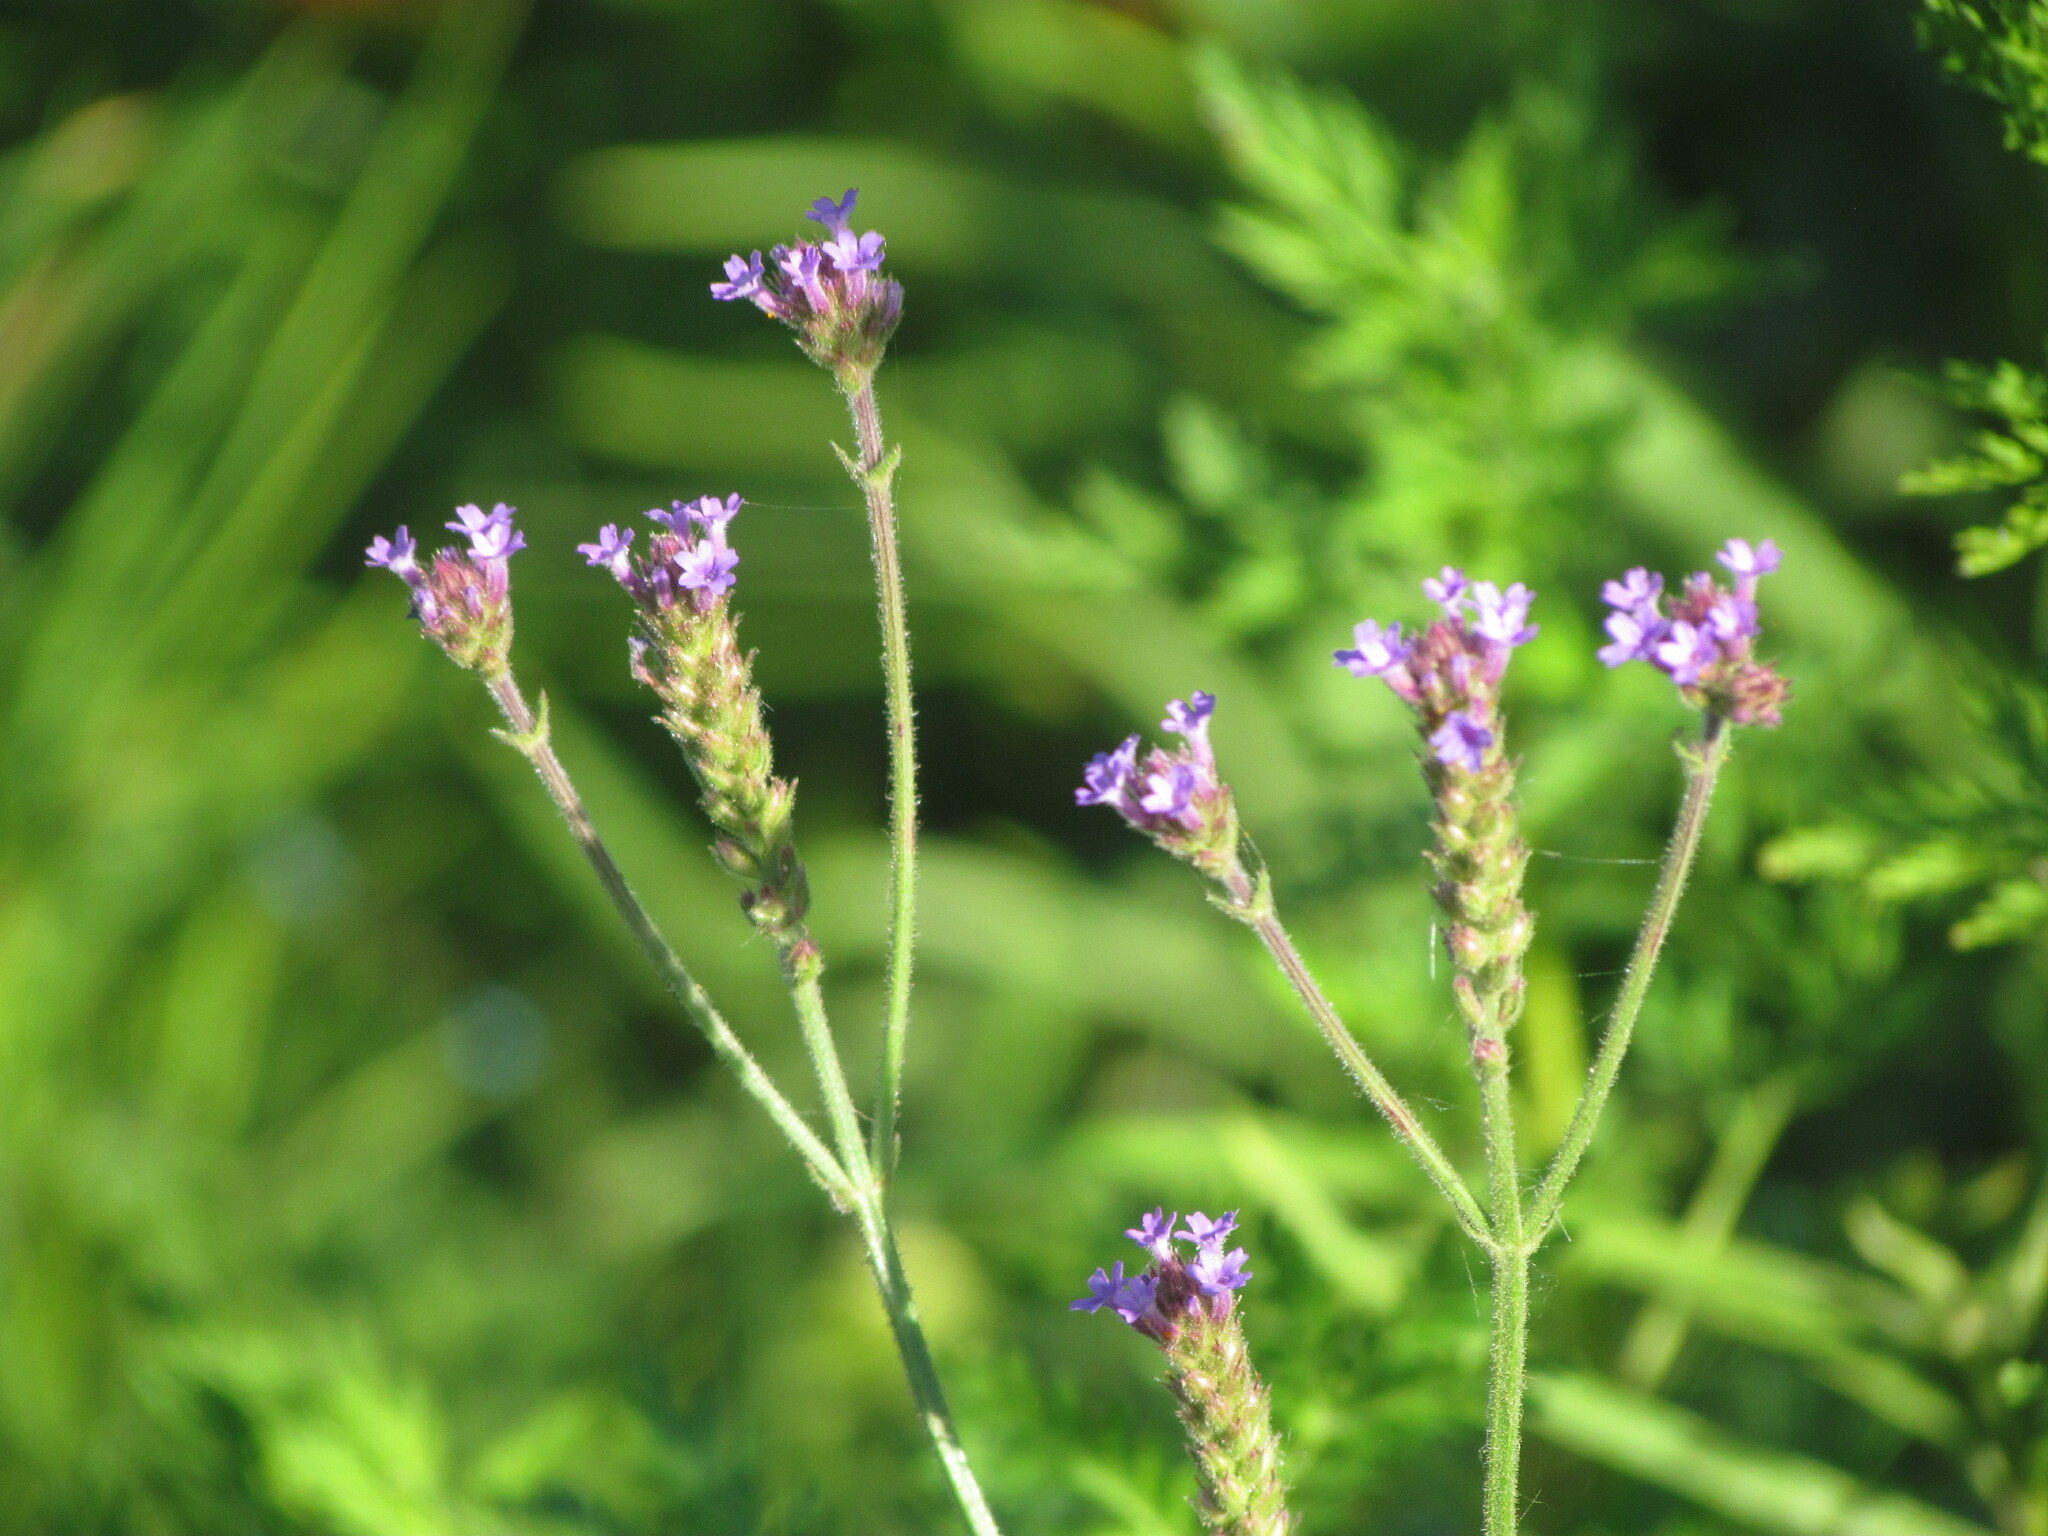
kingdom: Plantae
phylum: Tracheophyta
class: Magnoliopsida
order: Lamiales
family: Verbenaceae
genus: Verbena
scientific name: Verbena litoralis
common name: Seashore vervain
